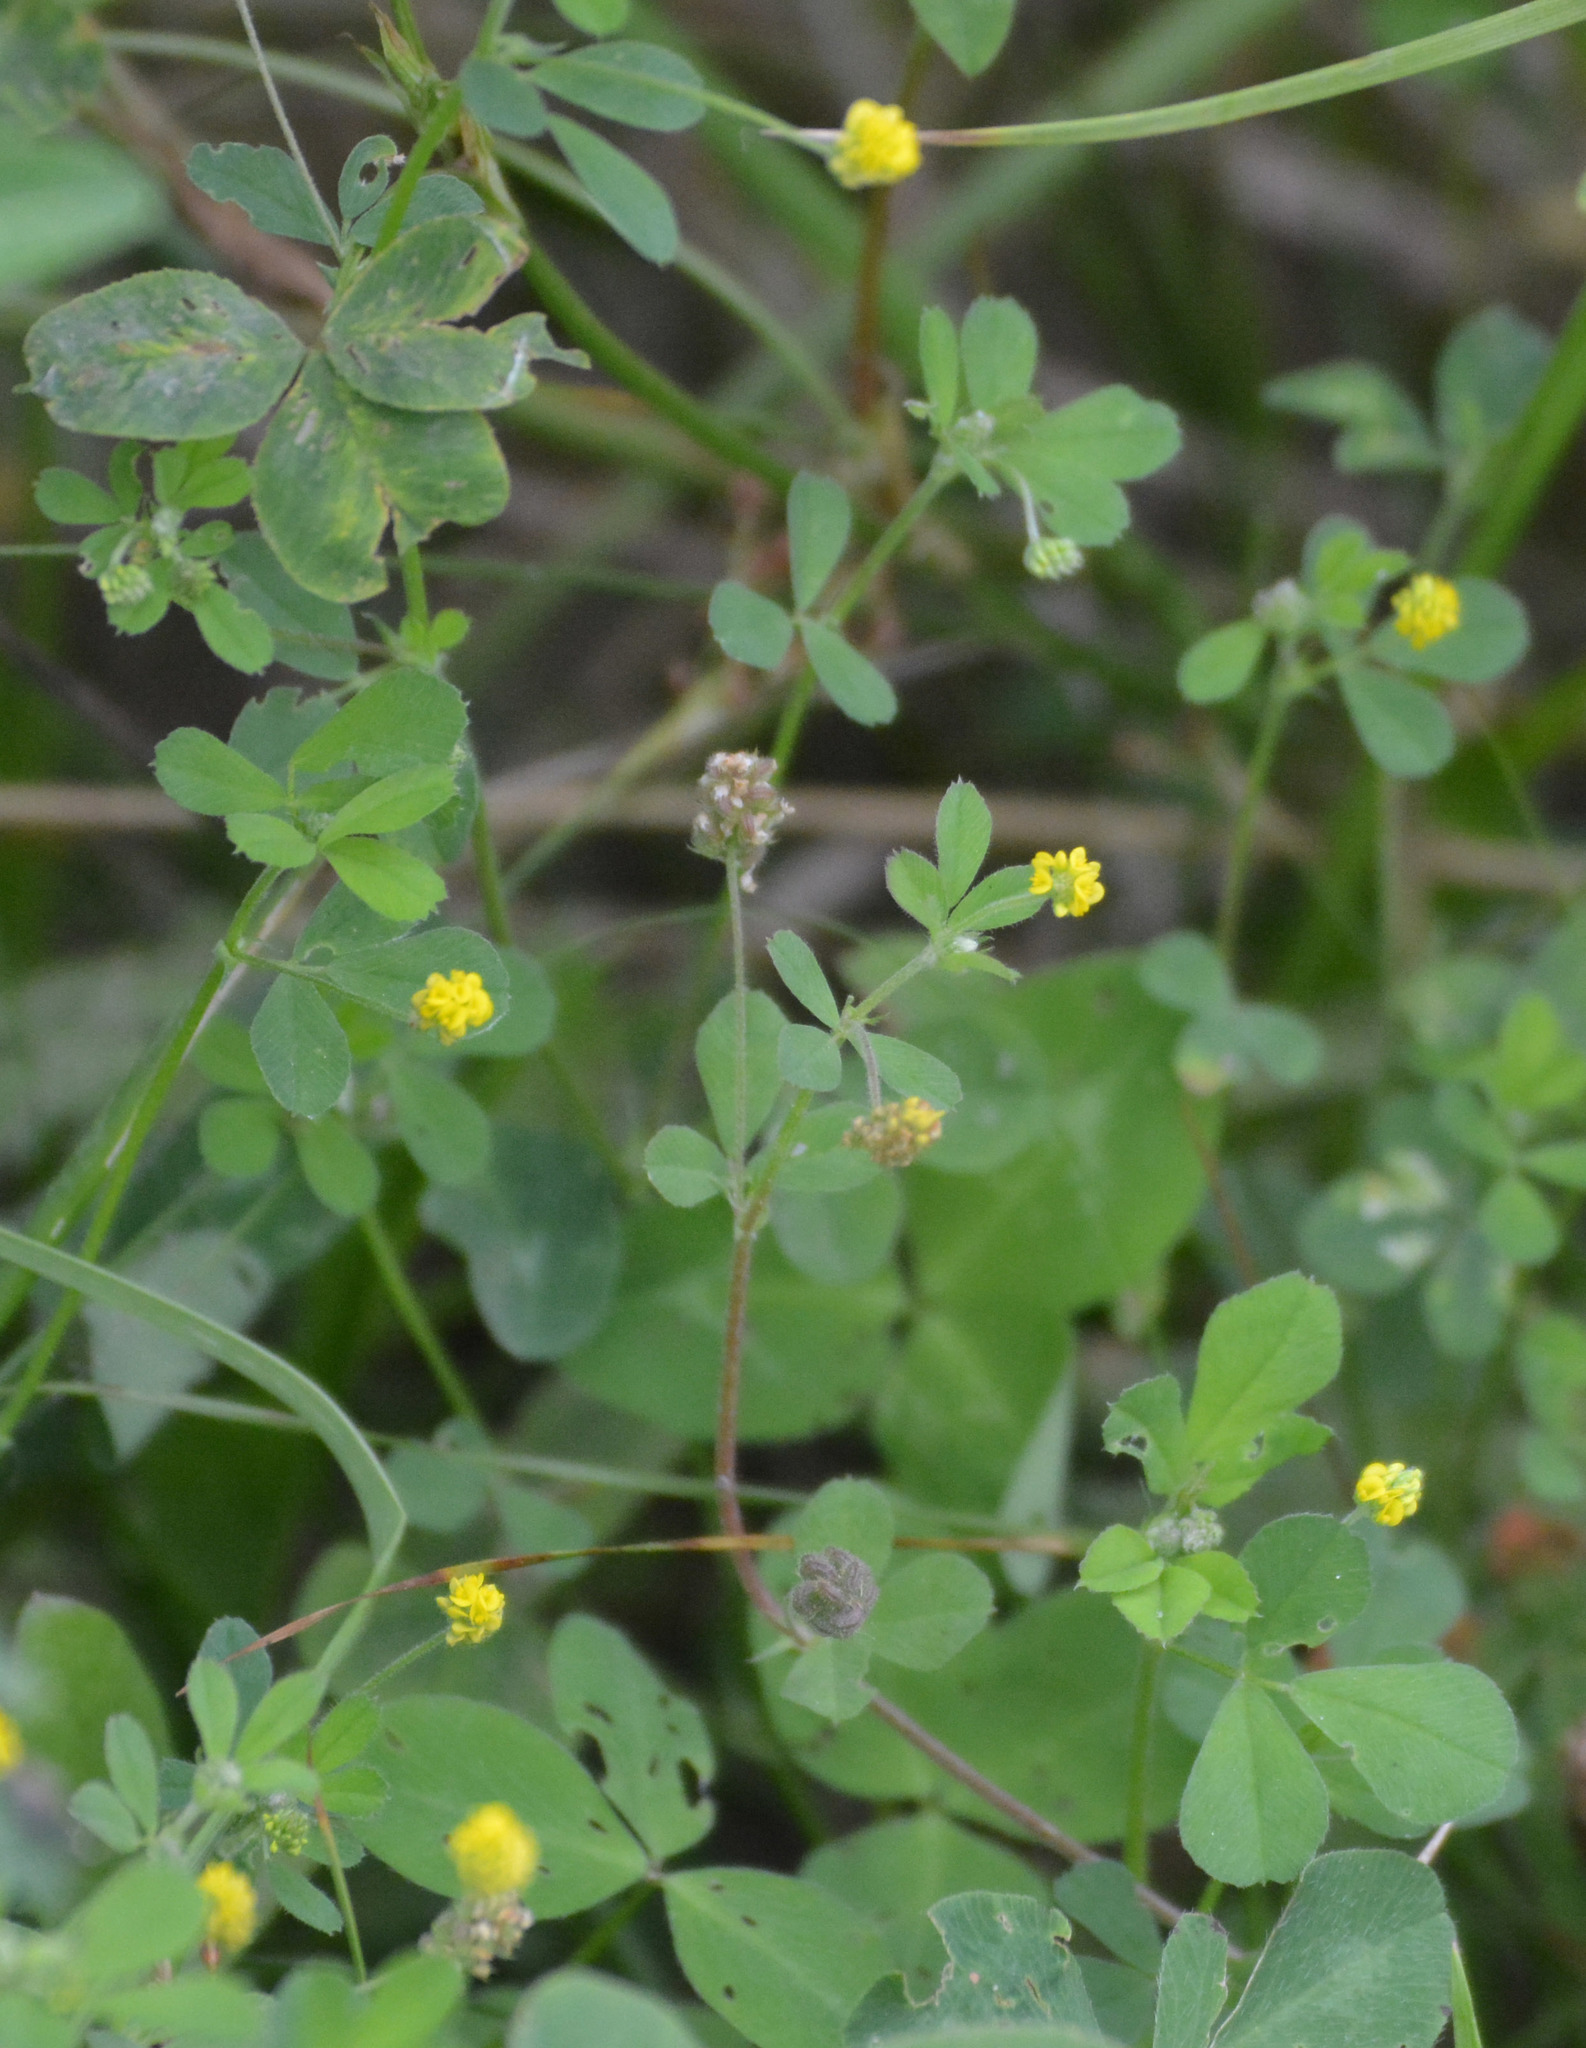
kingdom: Plantae
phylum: Tracheophyta
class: Magnoliopsida
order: Fabales
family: Fabaceae
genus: Medicago
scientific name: Medicago lupulina
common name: Black medick
